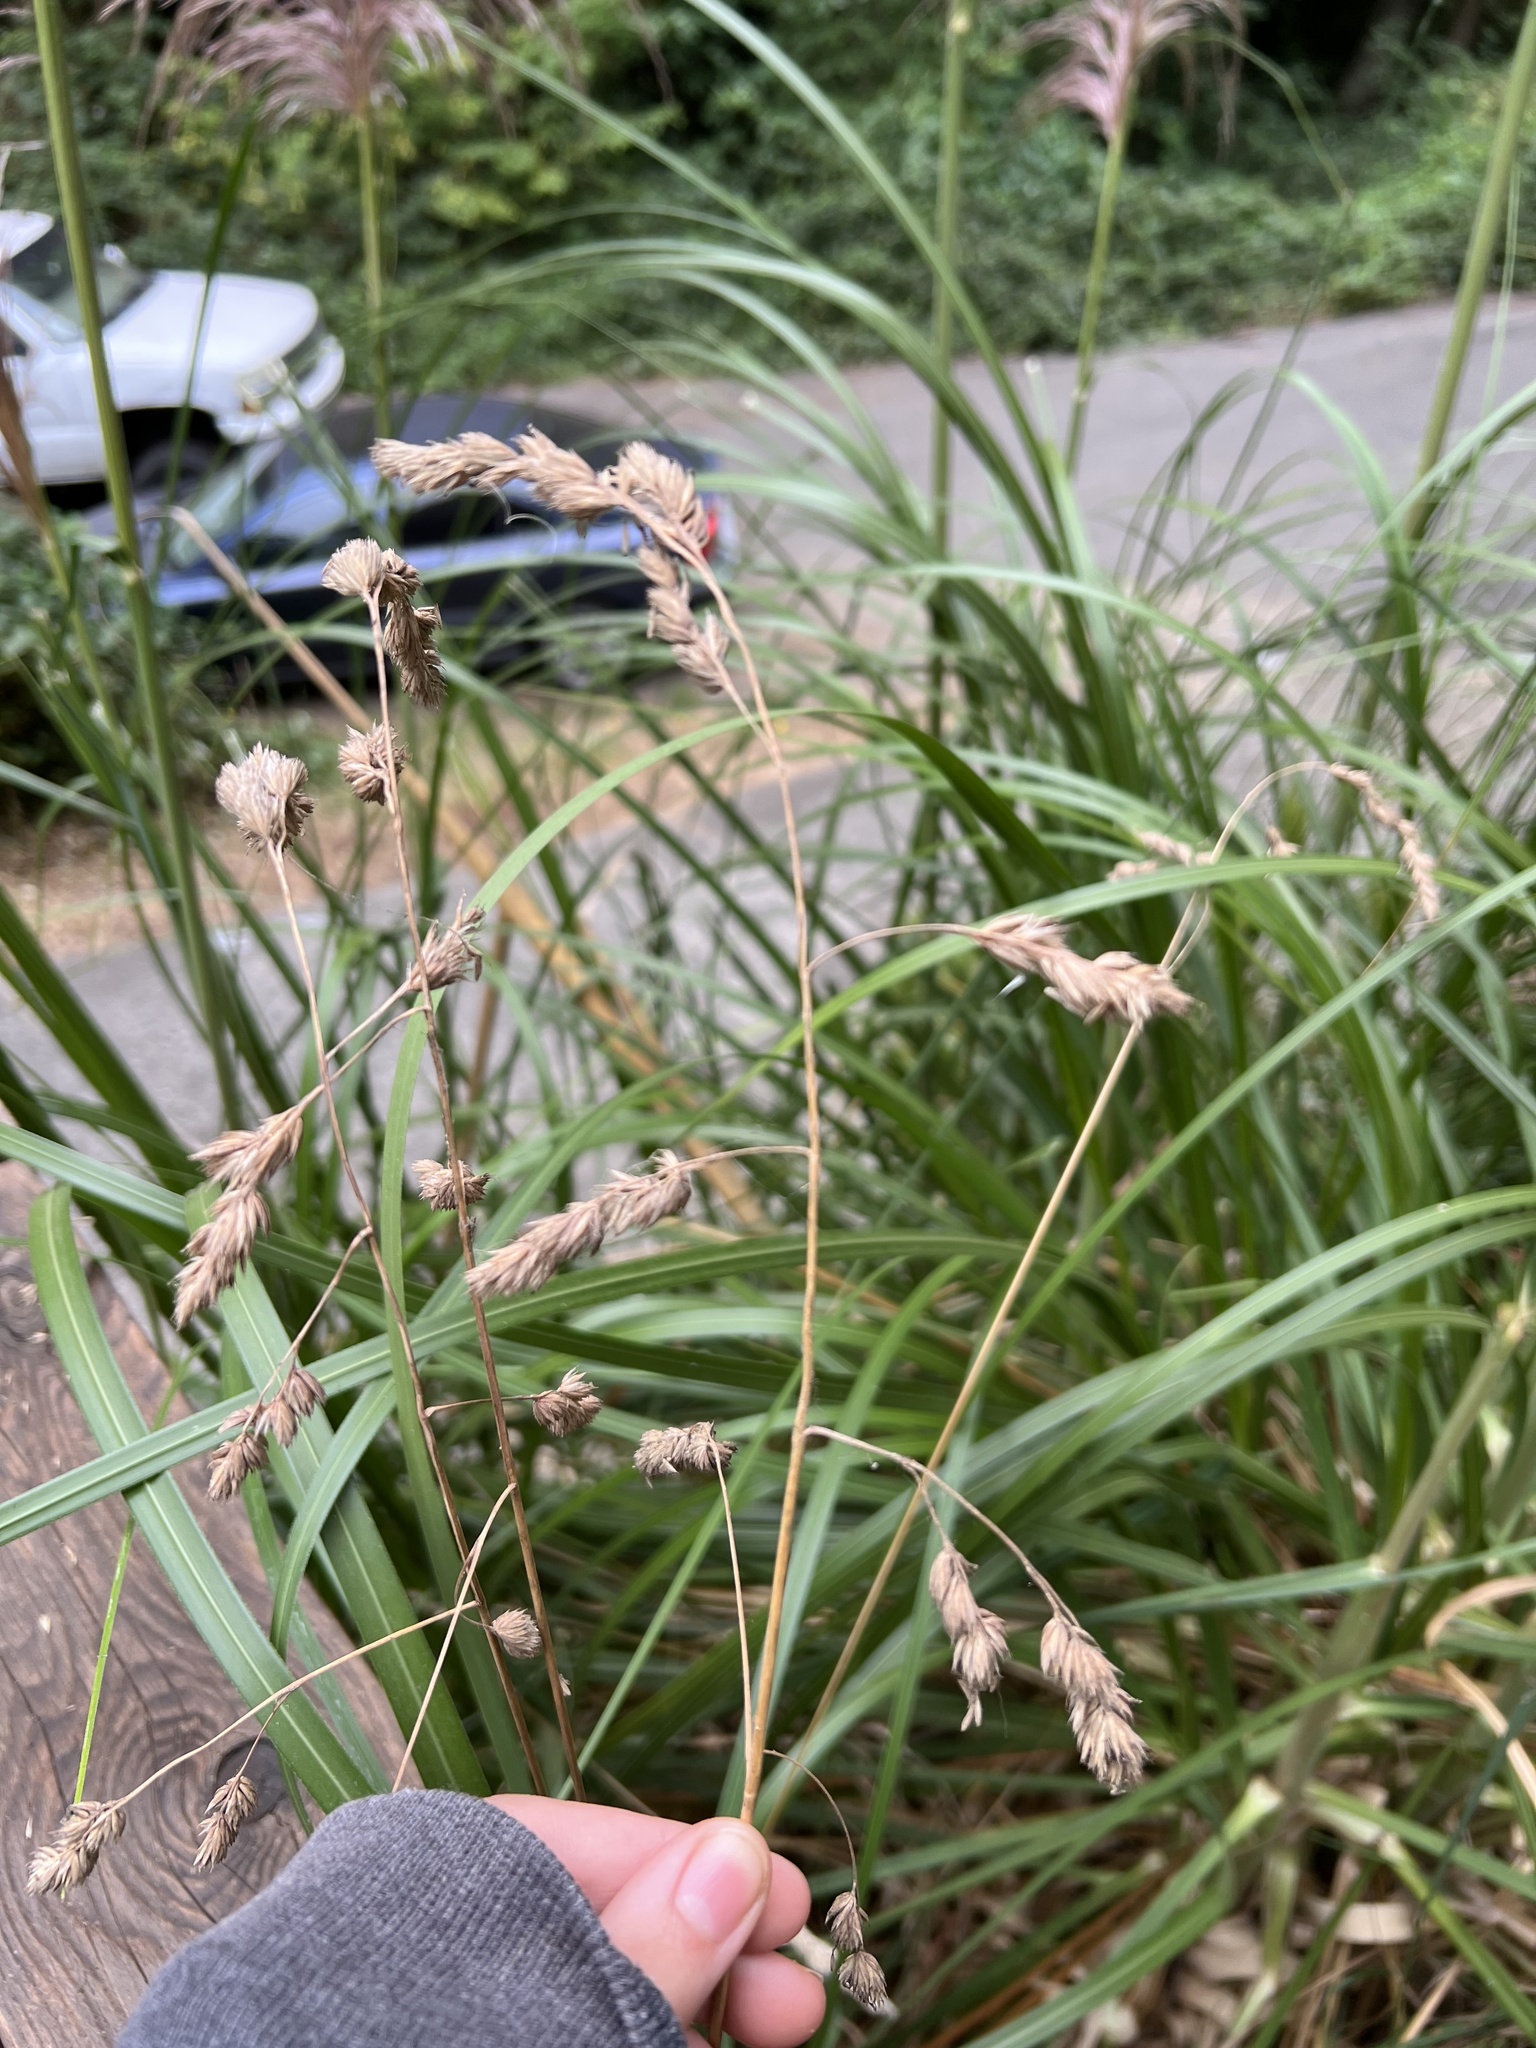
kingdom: Plantae
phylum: Tracheophyta
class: Liliopsida
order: Poales
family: Poaceae
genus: Dactylis
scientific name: Dactylis glomerata
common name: Orchardgrass
